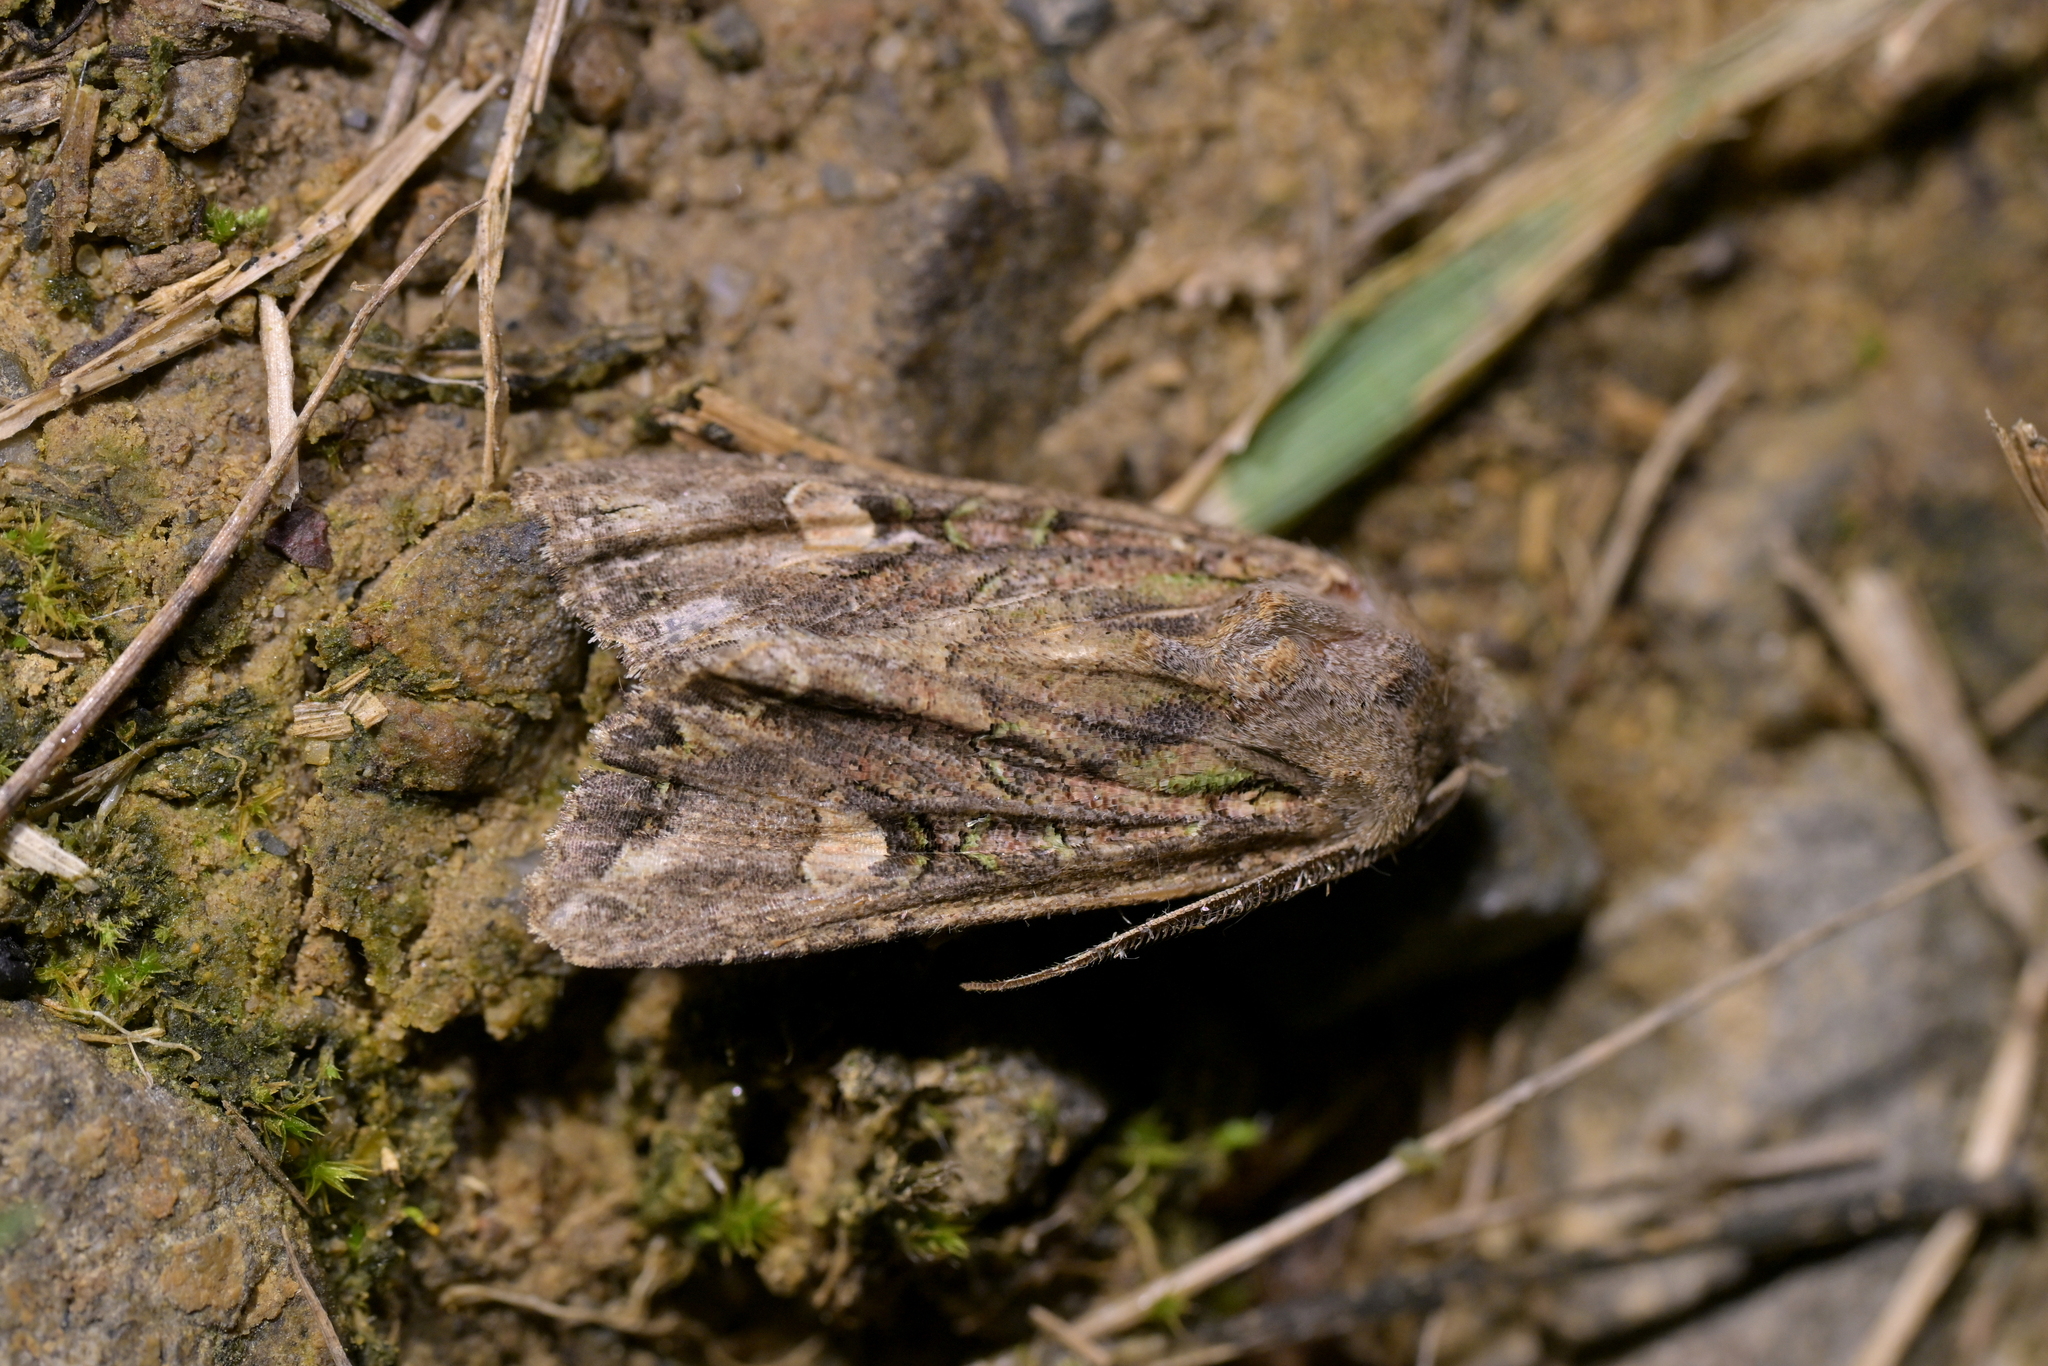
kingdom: Animalia
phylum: Arthropoda
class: Insecta
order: Lepidoptera
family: Noctuidae
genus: Ichneutica
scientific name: Ichneutica insignis
